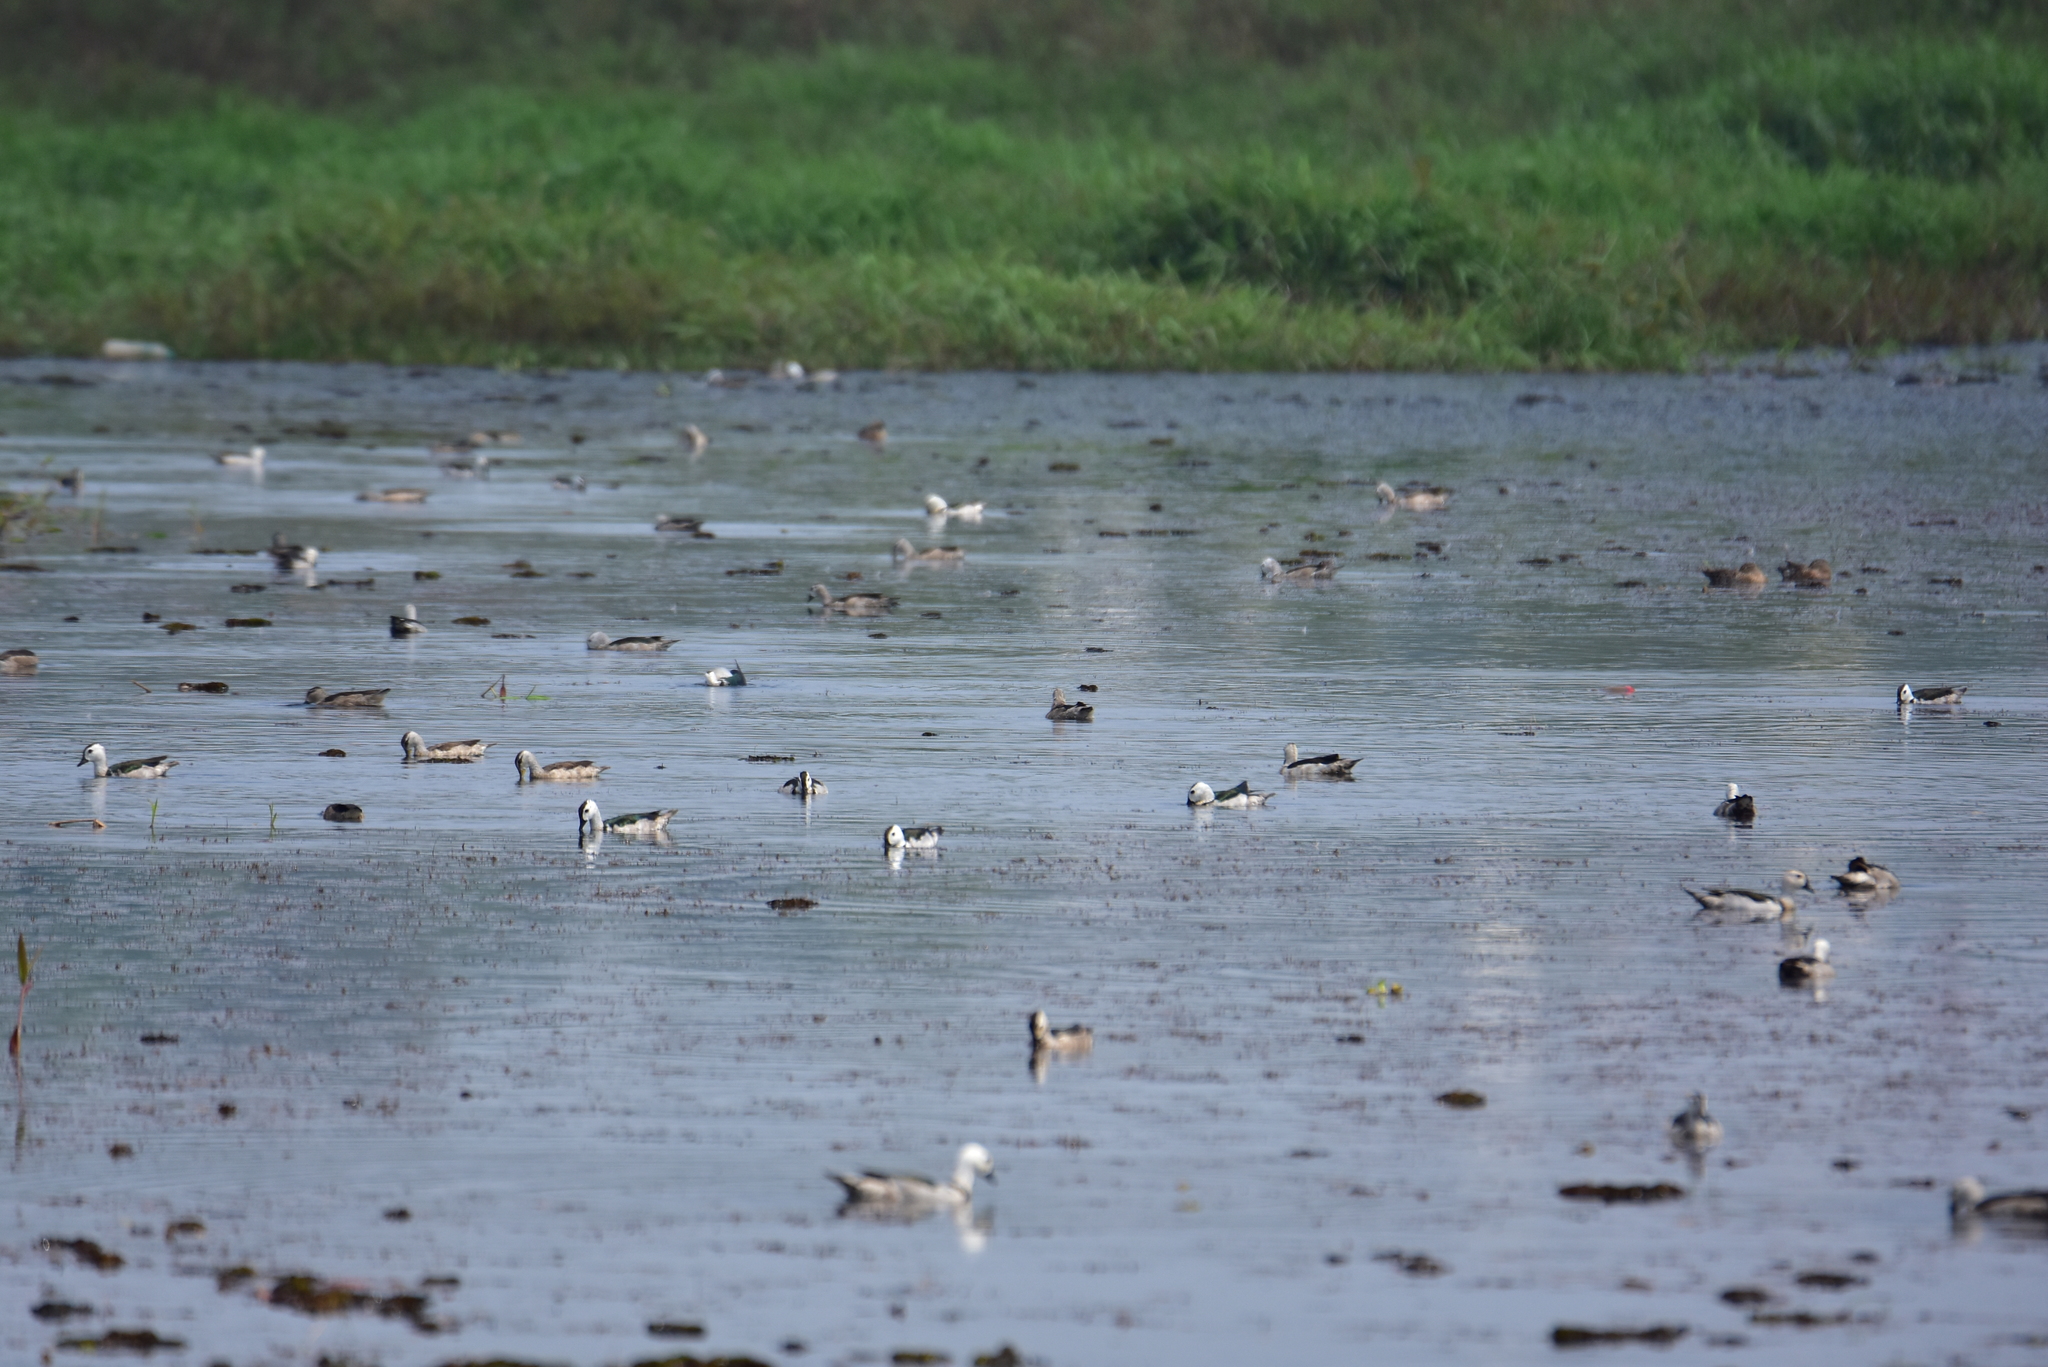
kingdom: Animalia
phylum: Chordata
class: Aves
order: Anseriformes
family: Anatidae
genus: Nettapus
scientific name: Nettapus coromandelianus
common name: Cotton pygmy-goose
